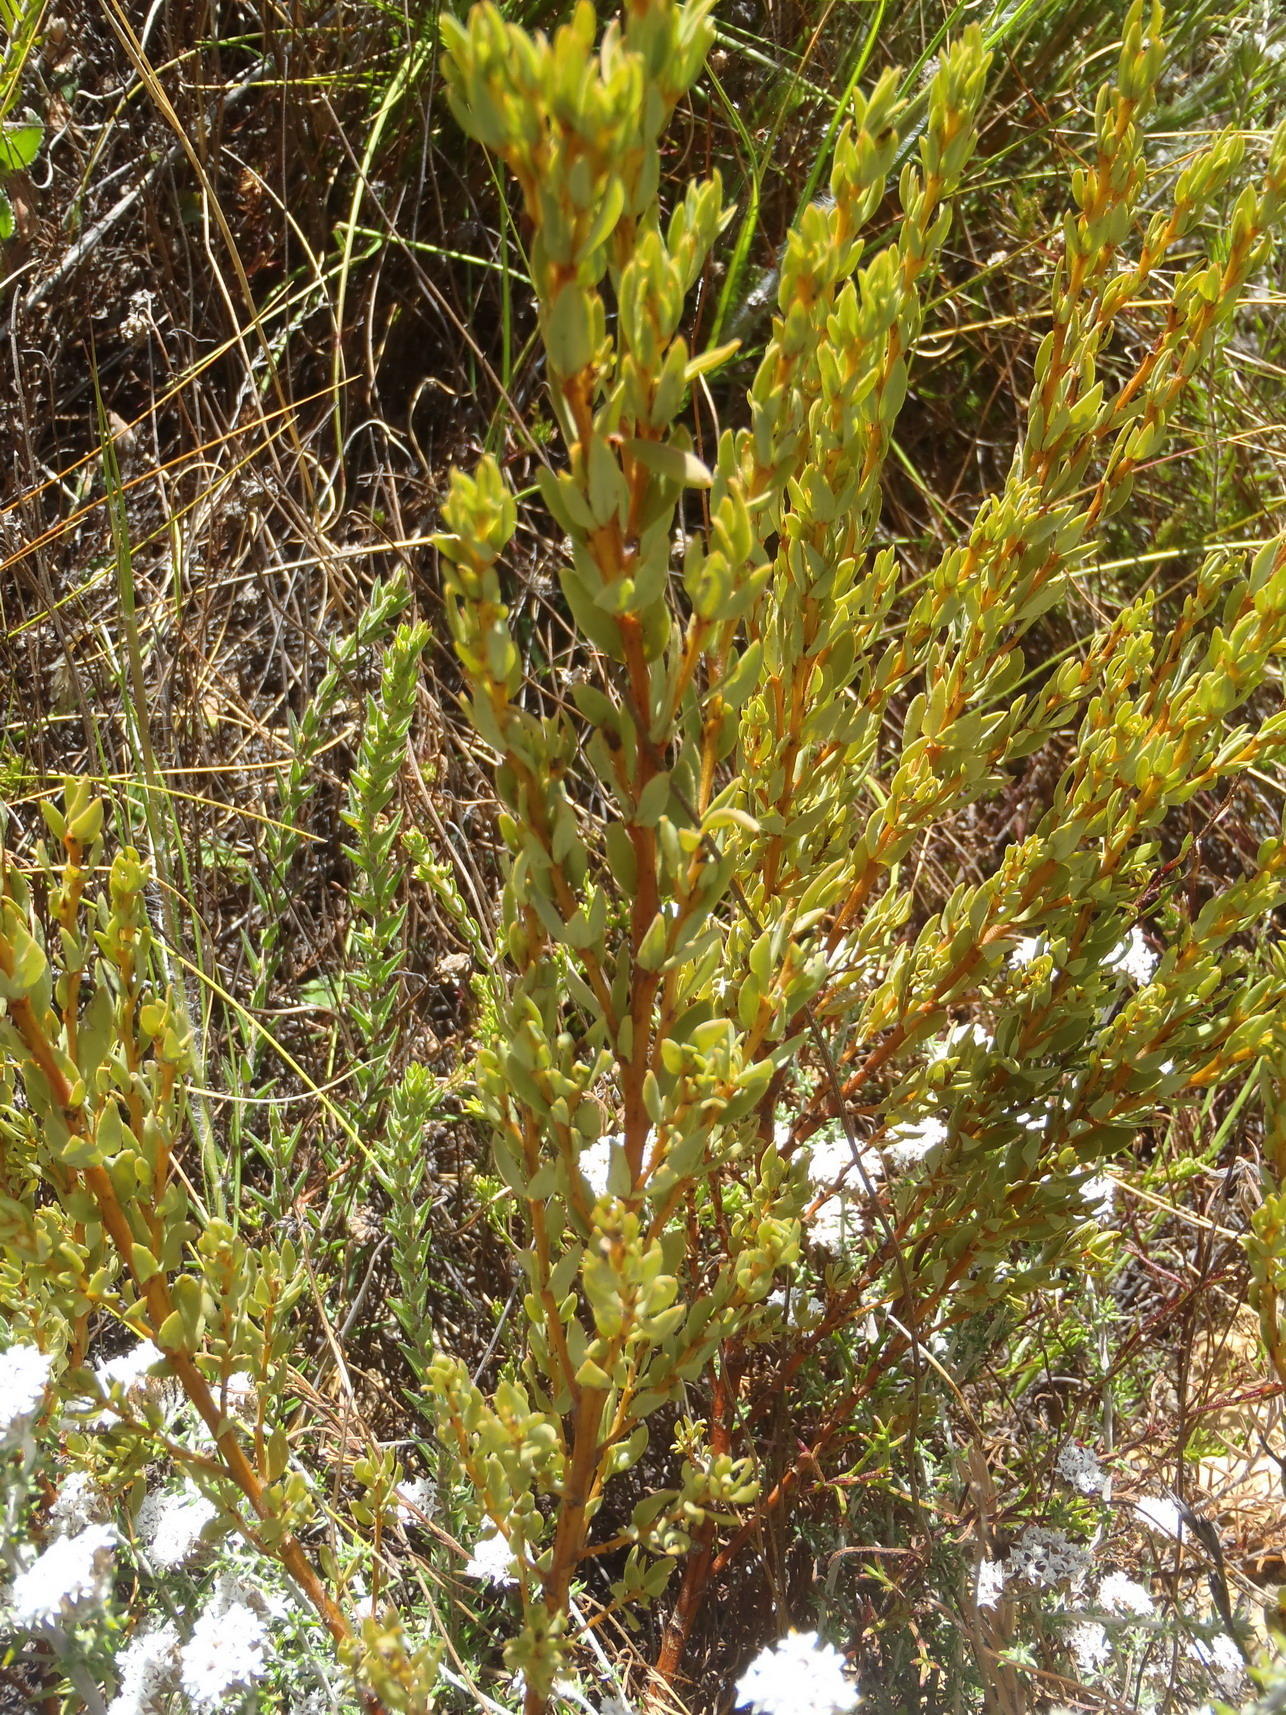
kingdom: Plantae
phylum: Tracheophyta
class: Magnoliopsida
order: Fabales
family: Fabaceae
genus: Cyclopia
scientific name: Cyclopia intermedia
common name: Mountain tea
